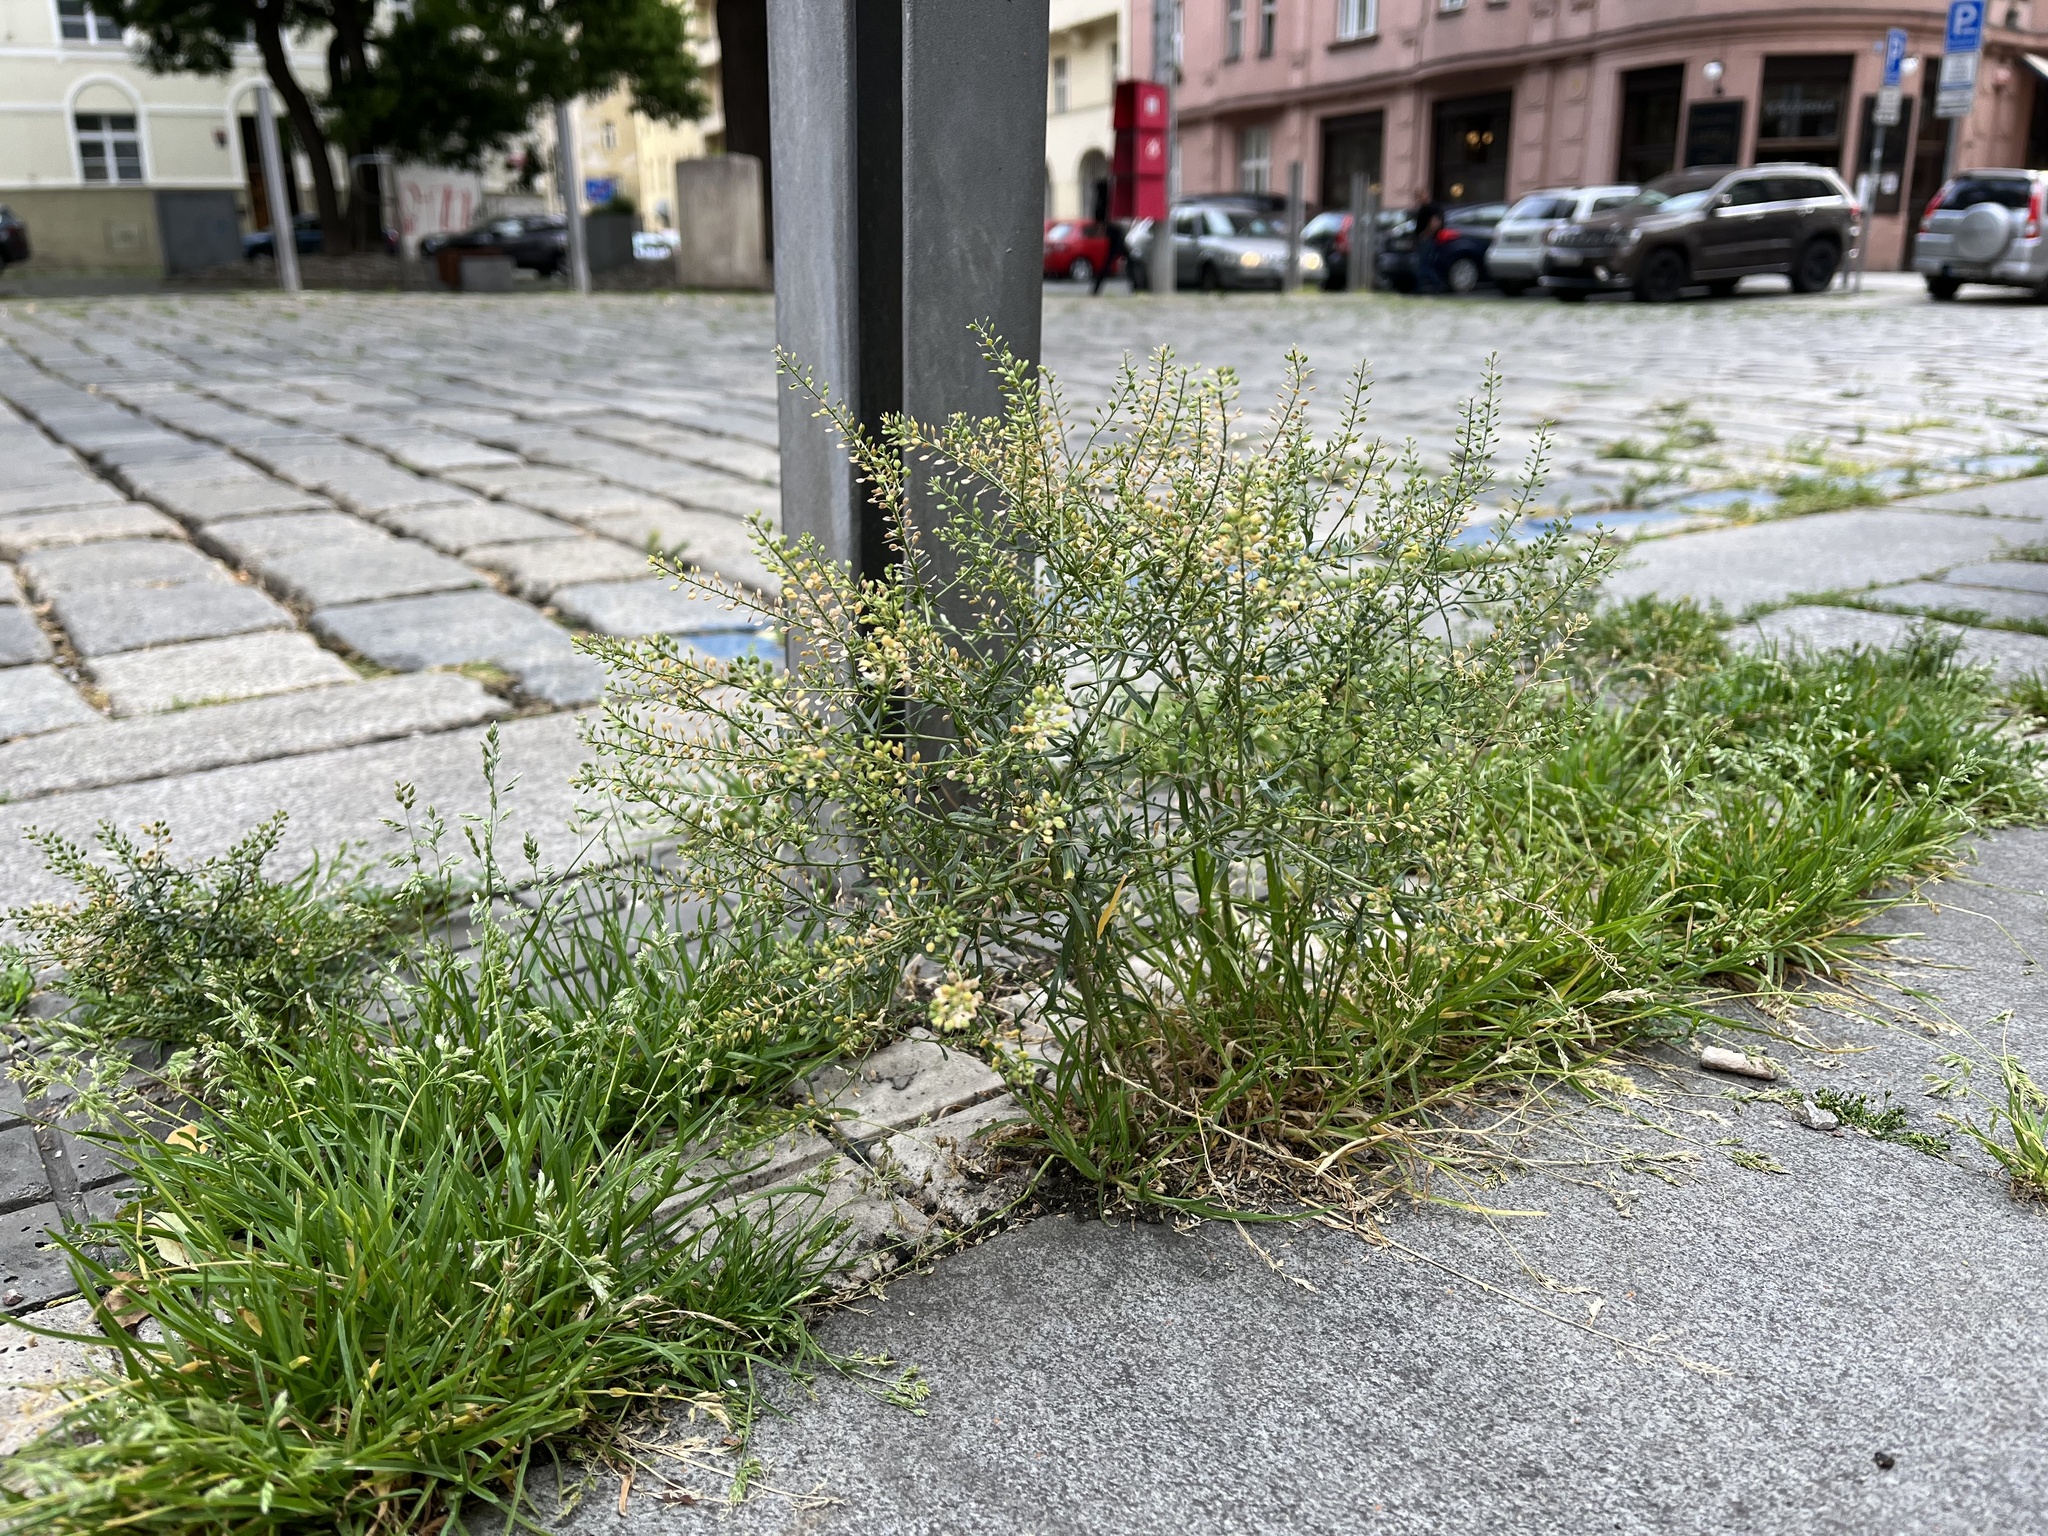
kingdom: Plantae
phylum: Tracheophyta
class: Magnoliopsida
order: Brassicales
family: Brassicaceae
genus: Lepidium
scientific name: Lepidium ruderale
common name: Narrow-leaved pepperwort
